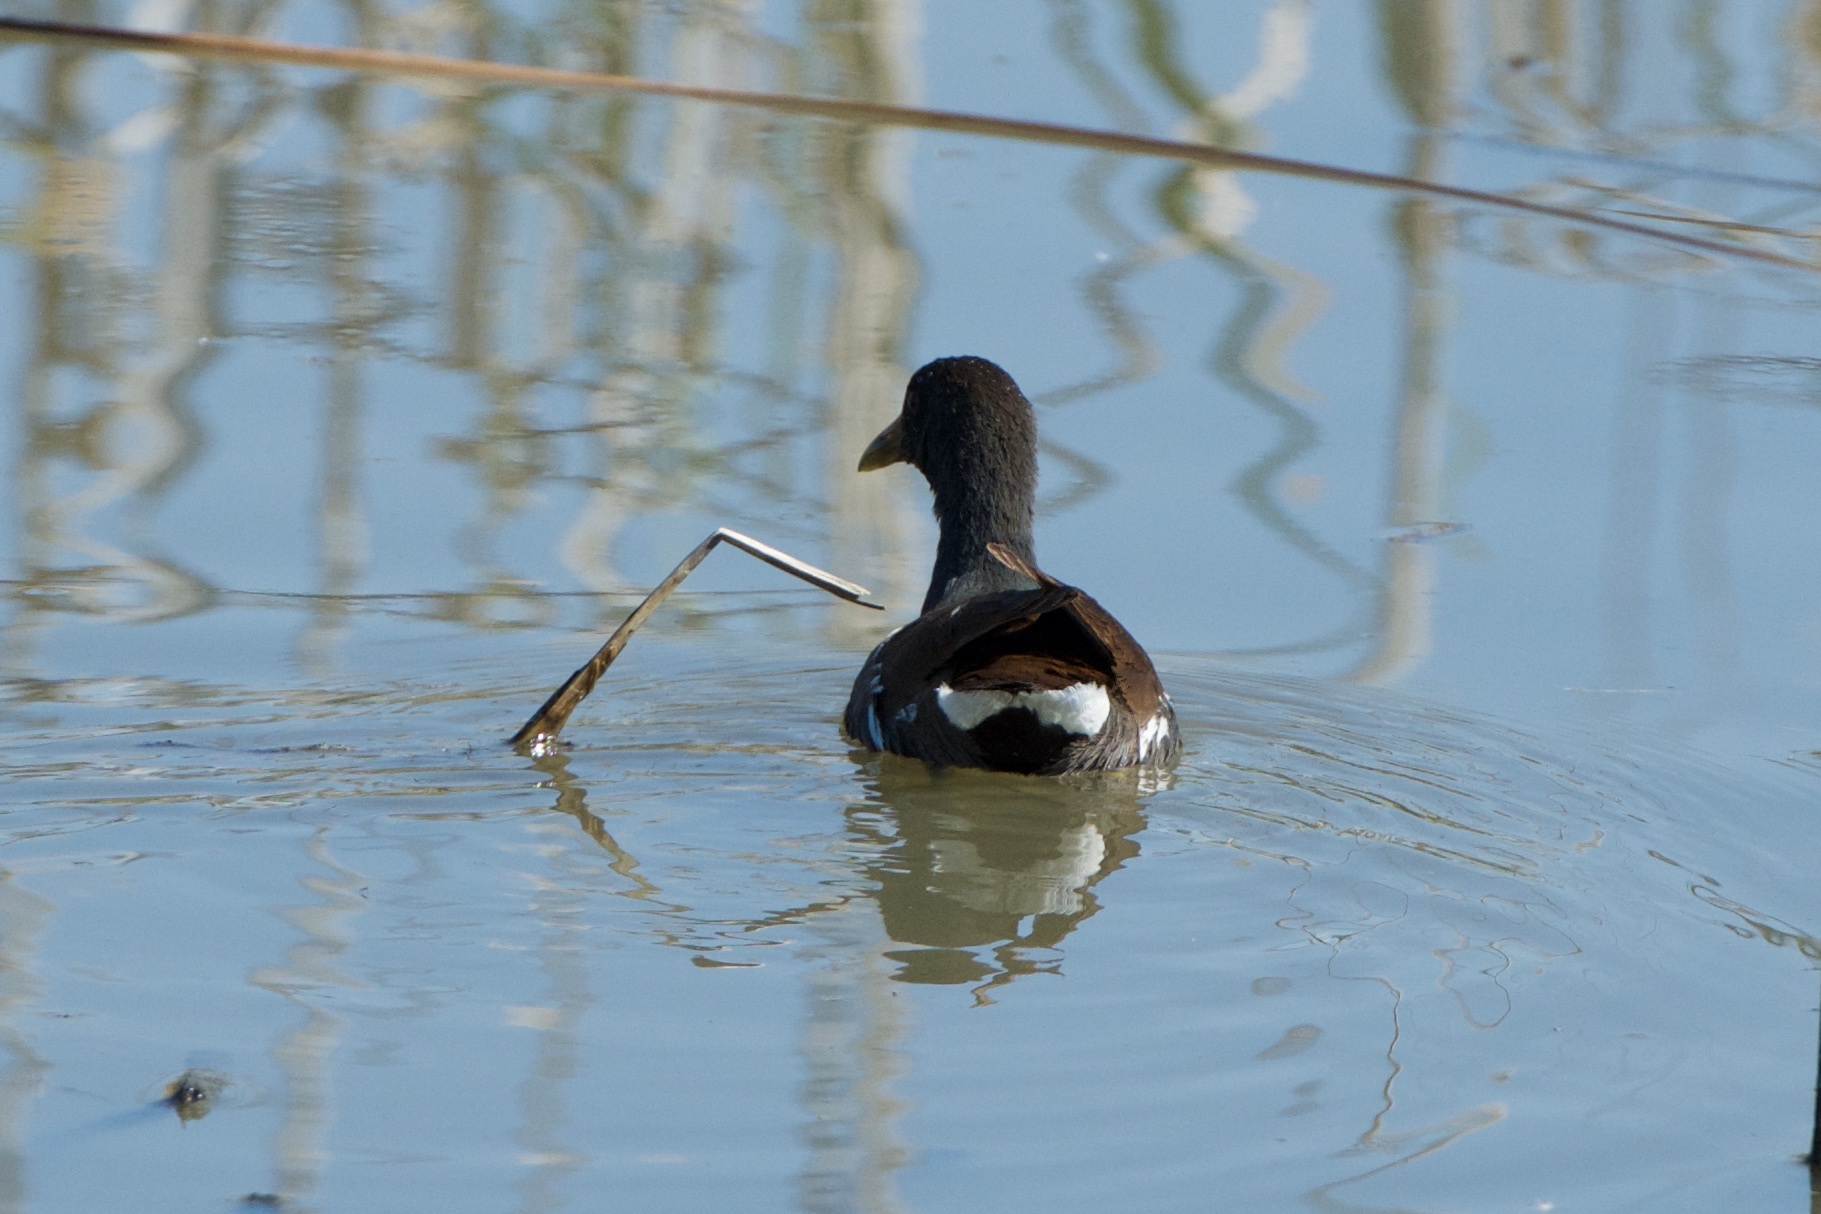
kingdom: Animalia
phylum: Chordata
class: Aves
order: Gruiformes
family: Rallidae
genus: Gallinula
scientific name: Gallinula chloropus
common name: Common moorhen
